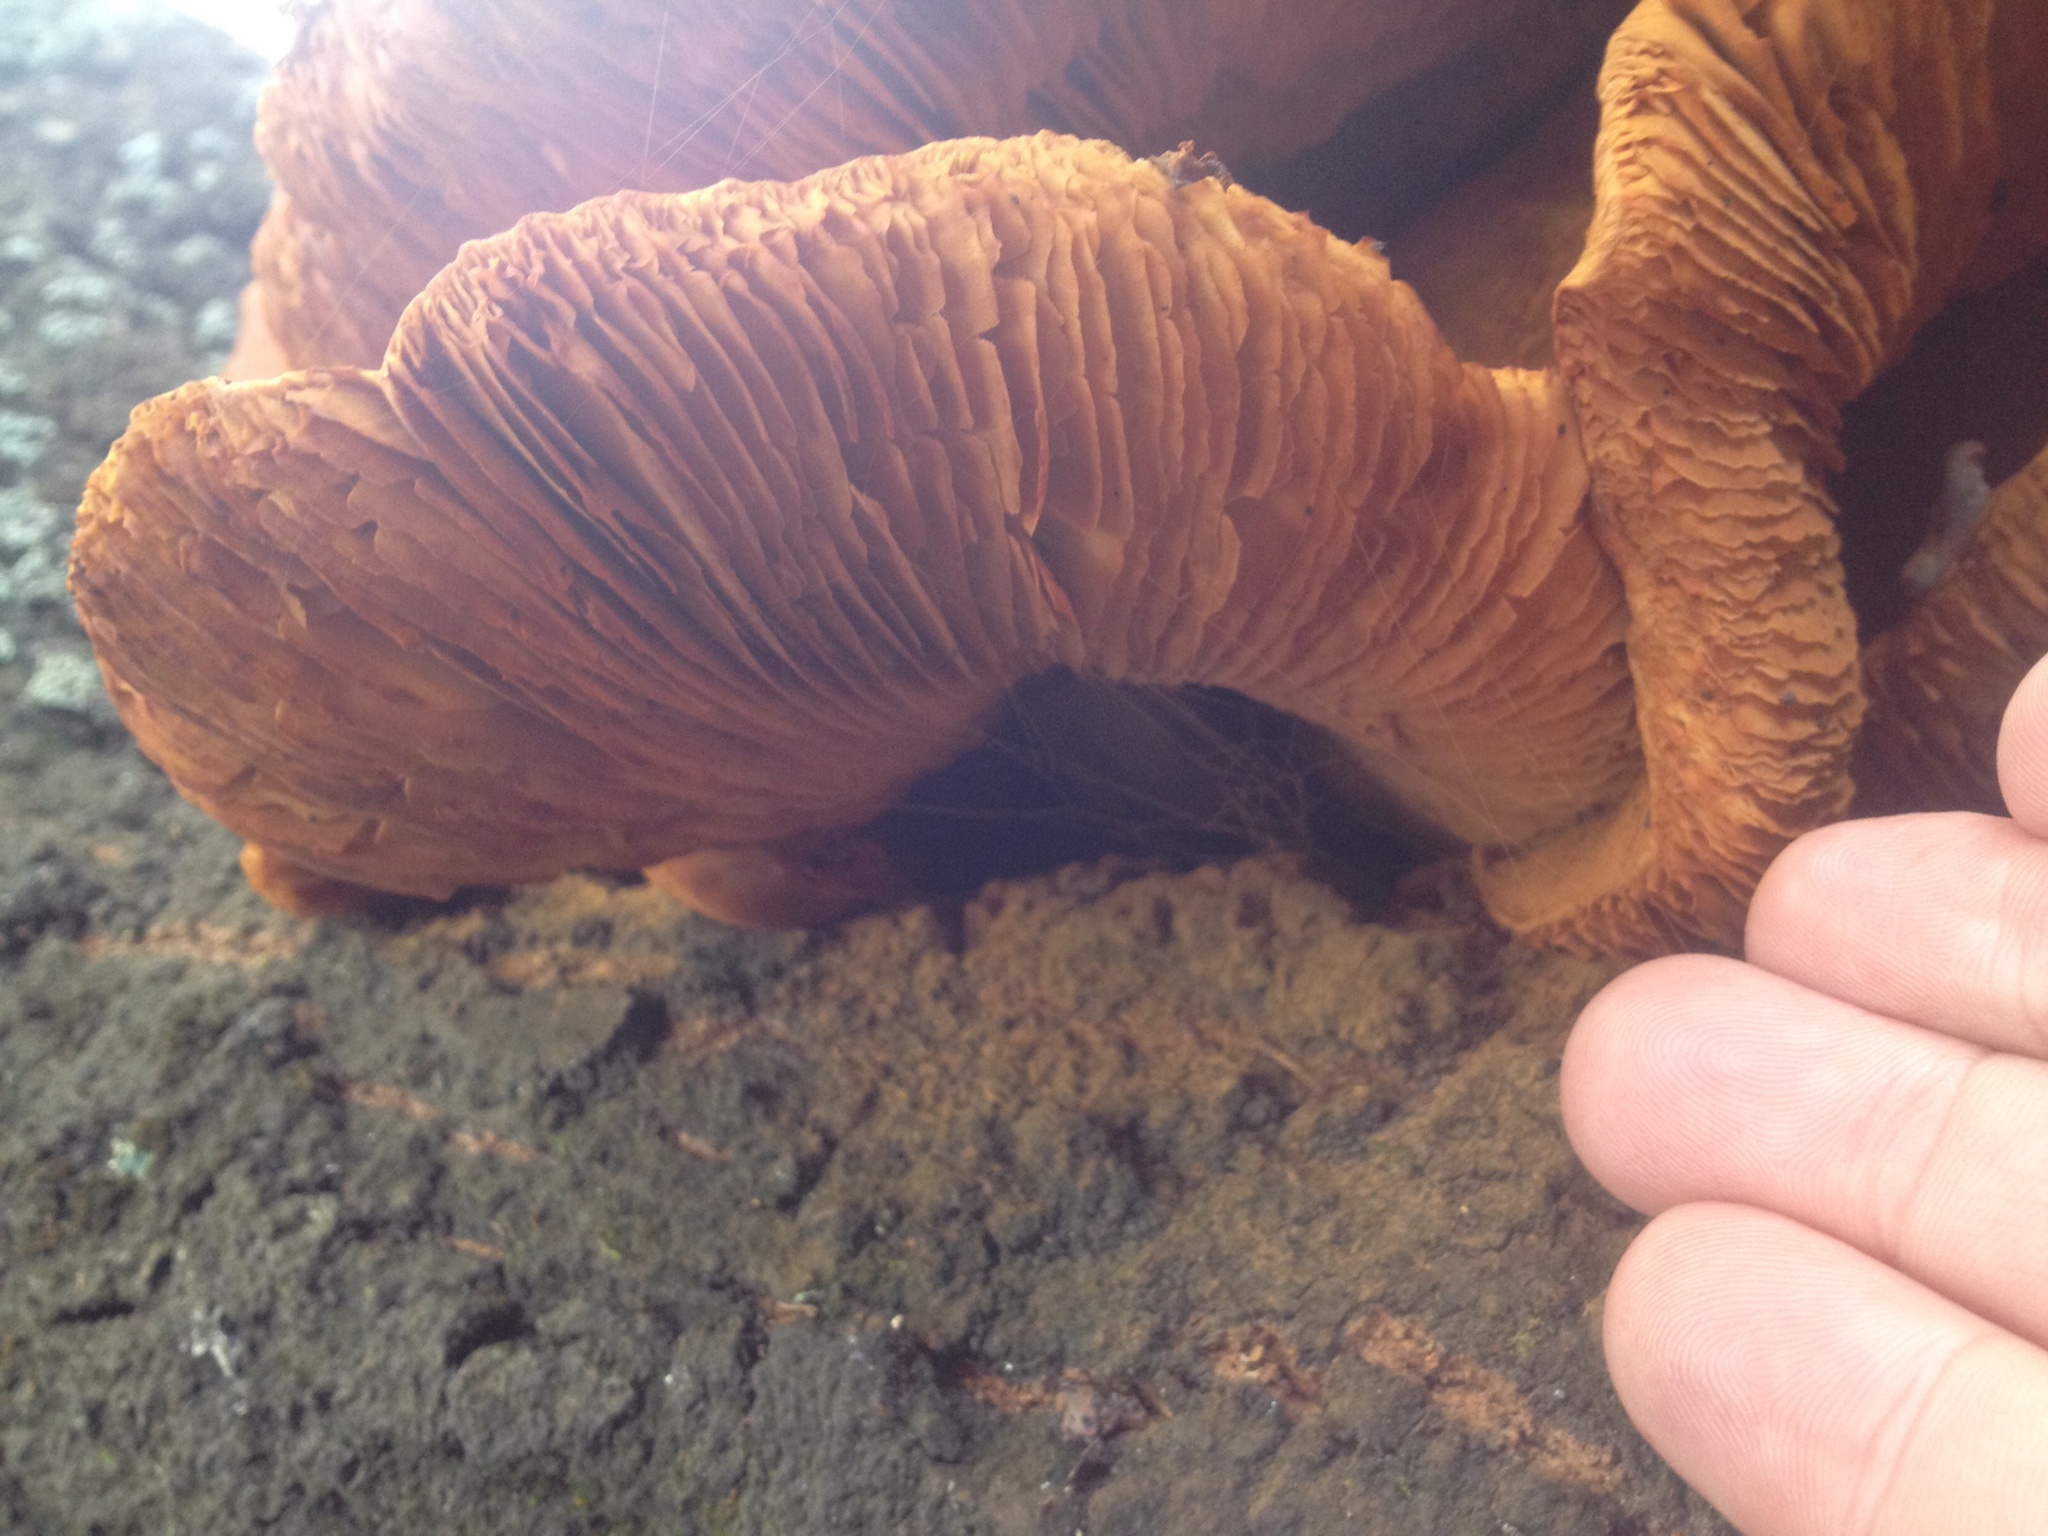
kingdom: Fungi
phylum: Basidiomycota
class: Agaricomycetes
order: Agaricales
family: Hymenogastraceae
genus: Gymnopilus
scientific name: Gymnopilus junonius
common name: Spectacular rustgill
